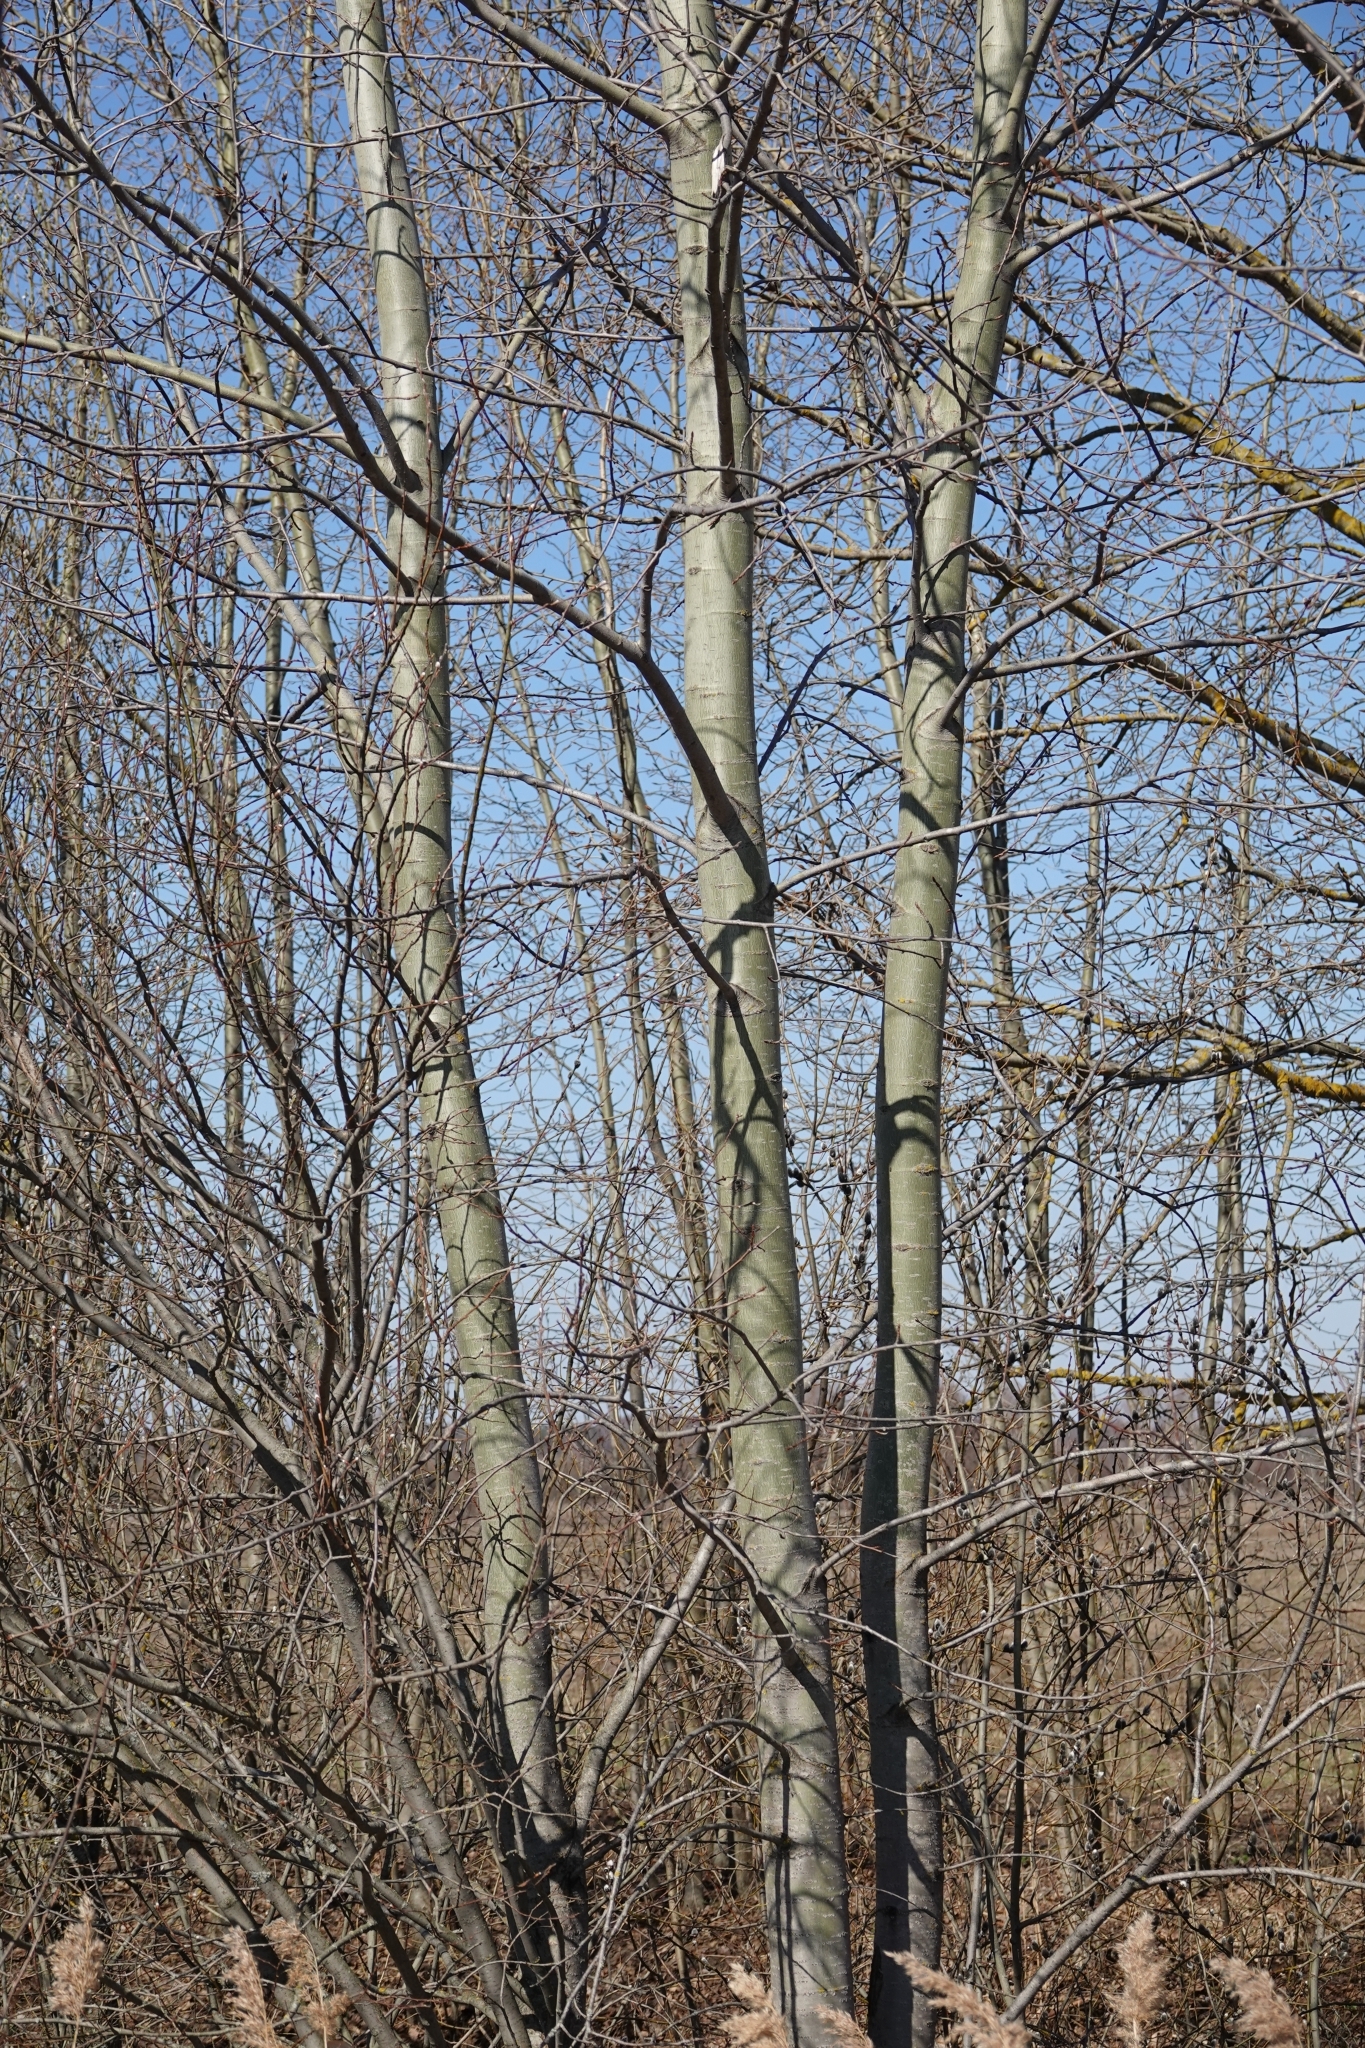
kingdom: Plantae
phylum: Tracheophyta
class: Magnoliopsida
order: Malpighiales
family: Salicaceae
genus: Populus
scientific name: Populus tremula
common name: European aspen
